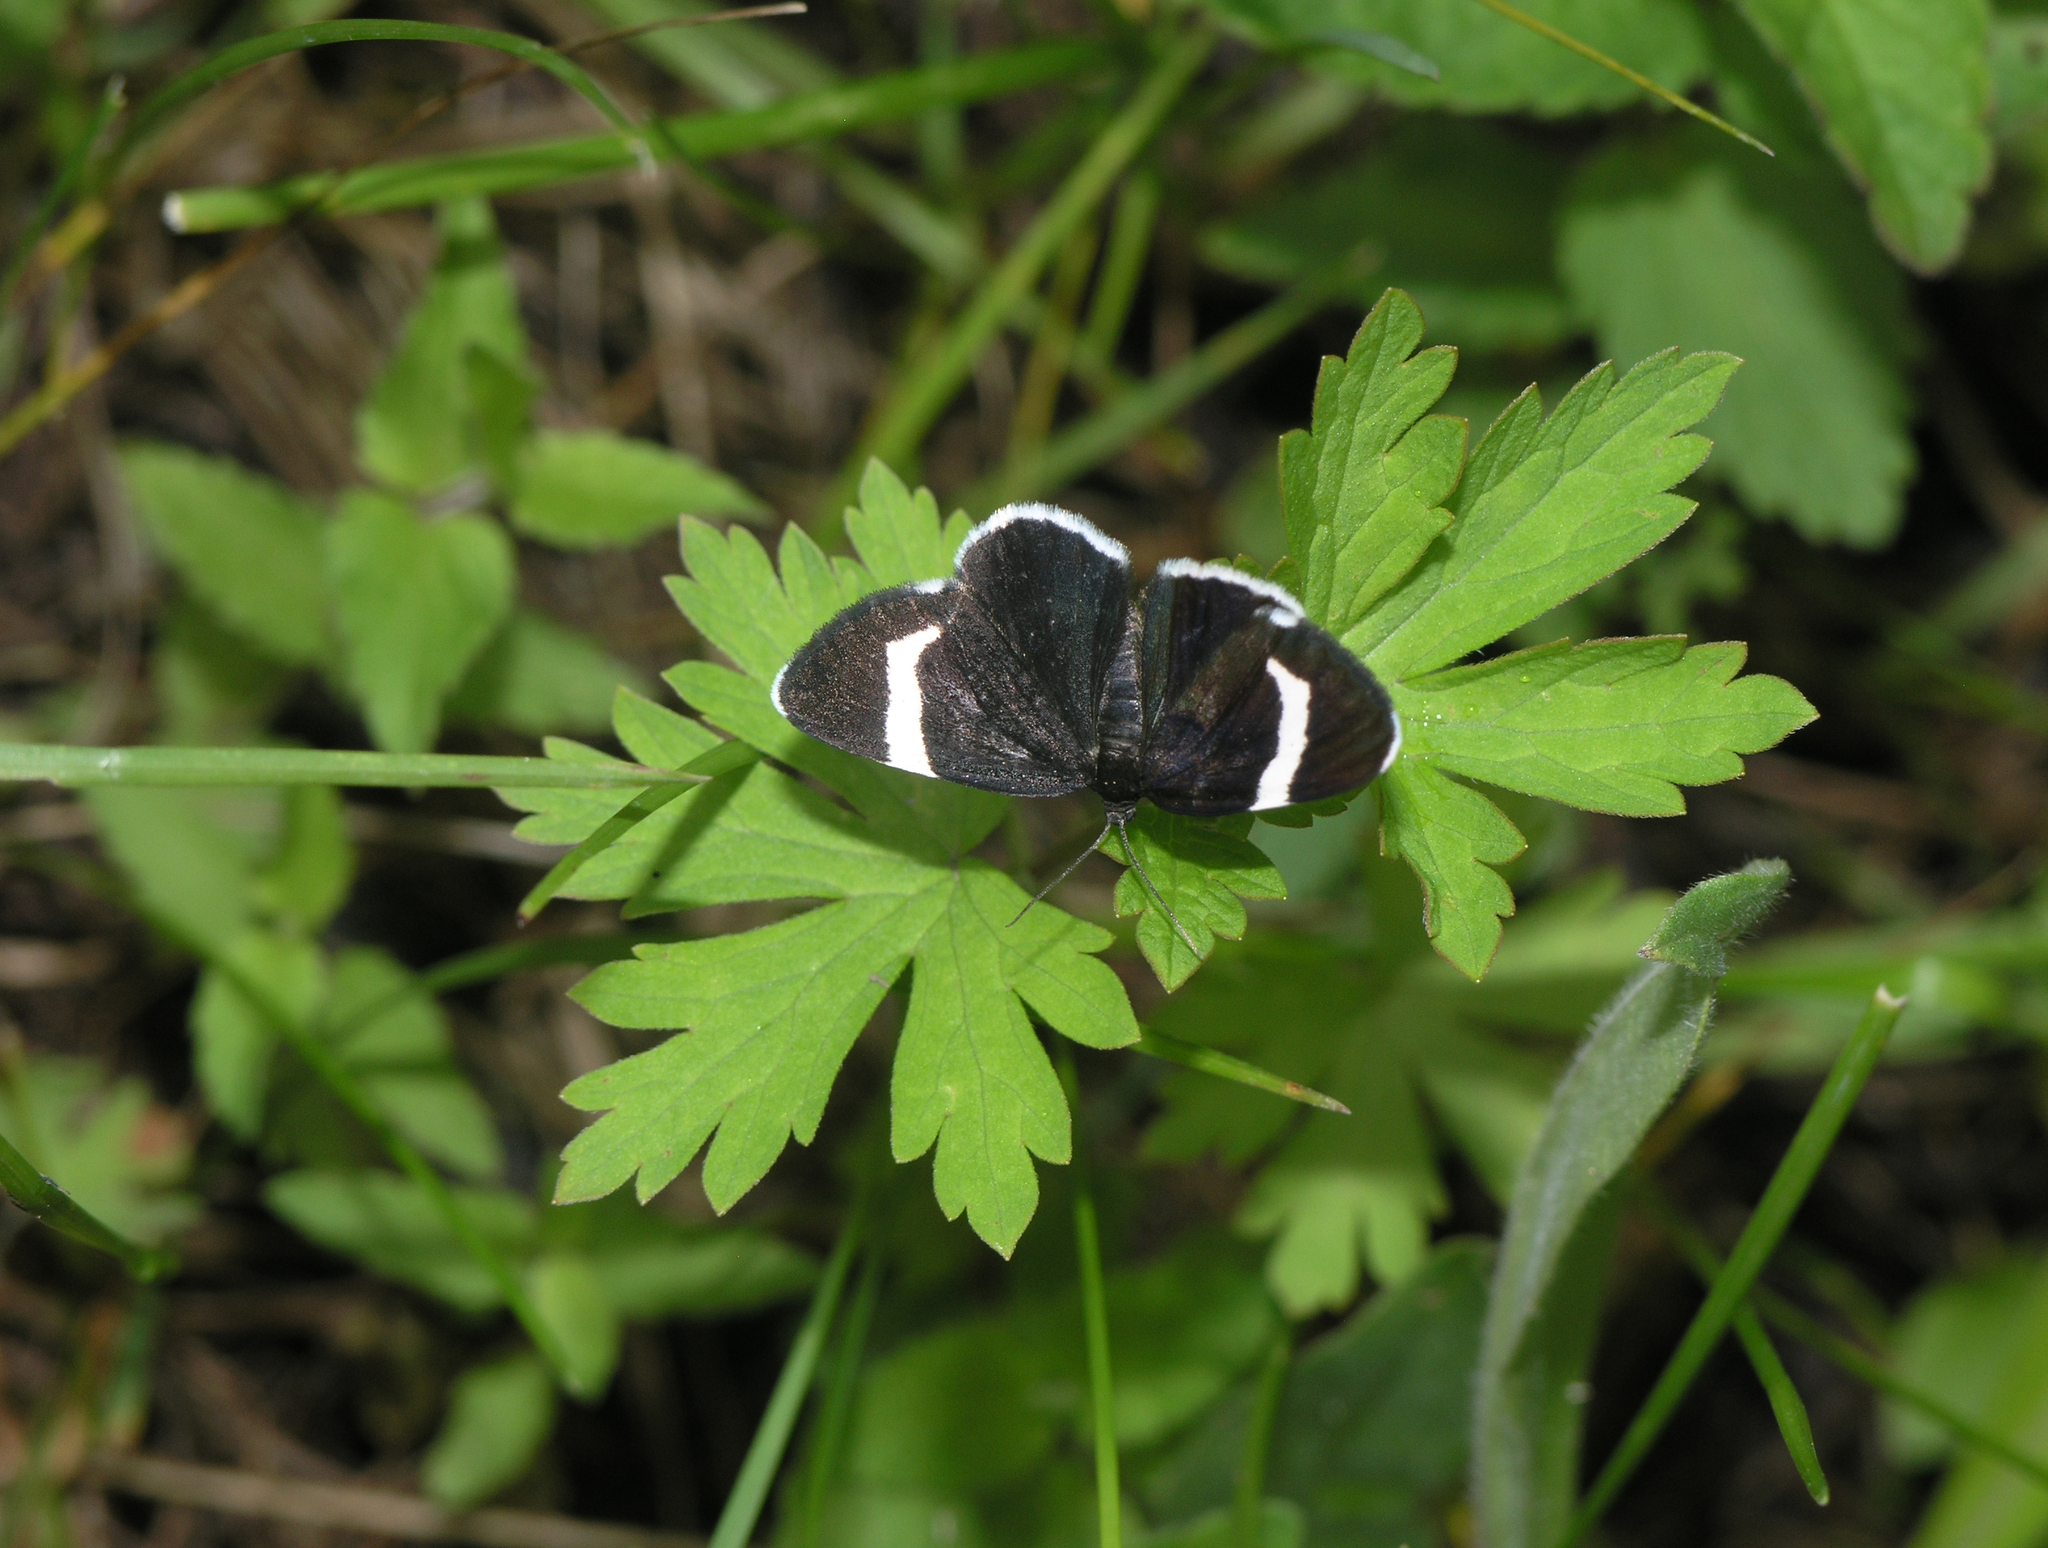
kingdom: Animalia
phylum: Arthropoda
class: Insecta
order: Lepidoptera
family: Geometridae
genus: Baptria
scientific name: Baptria tibiale
